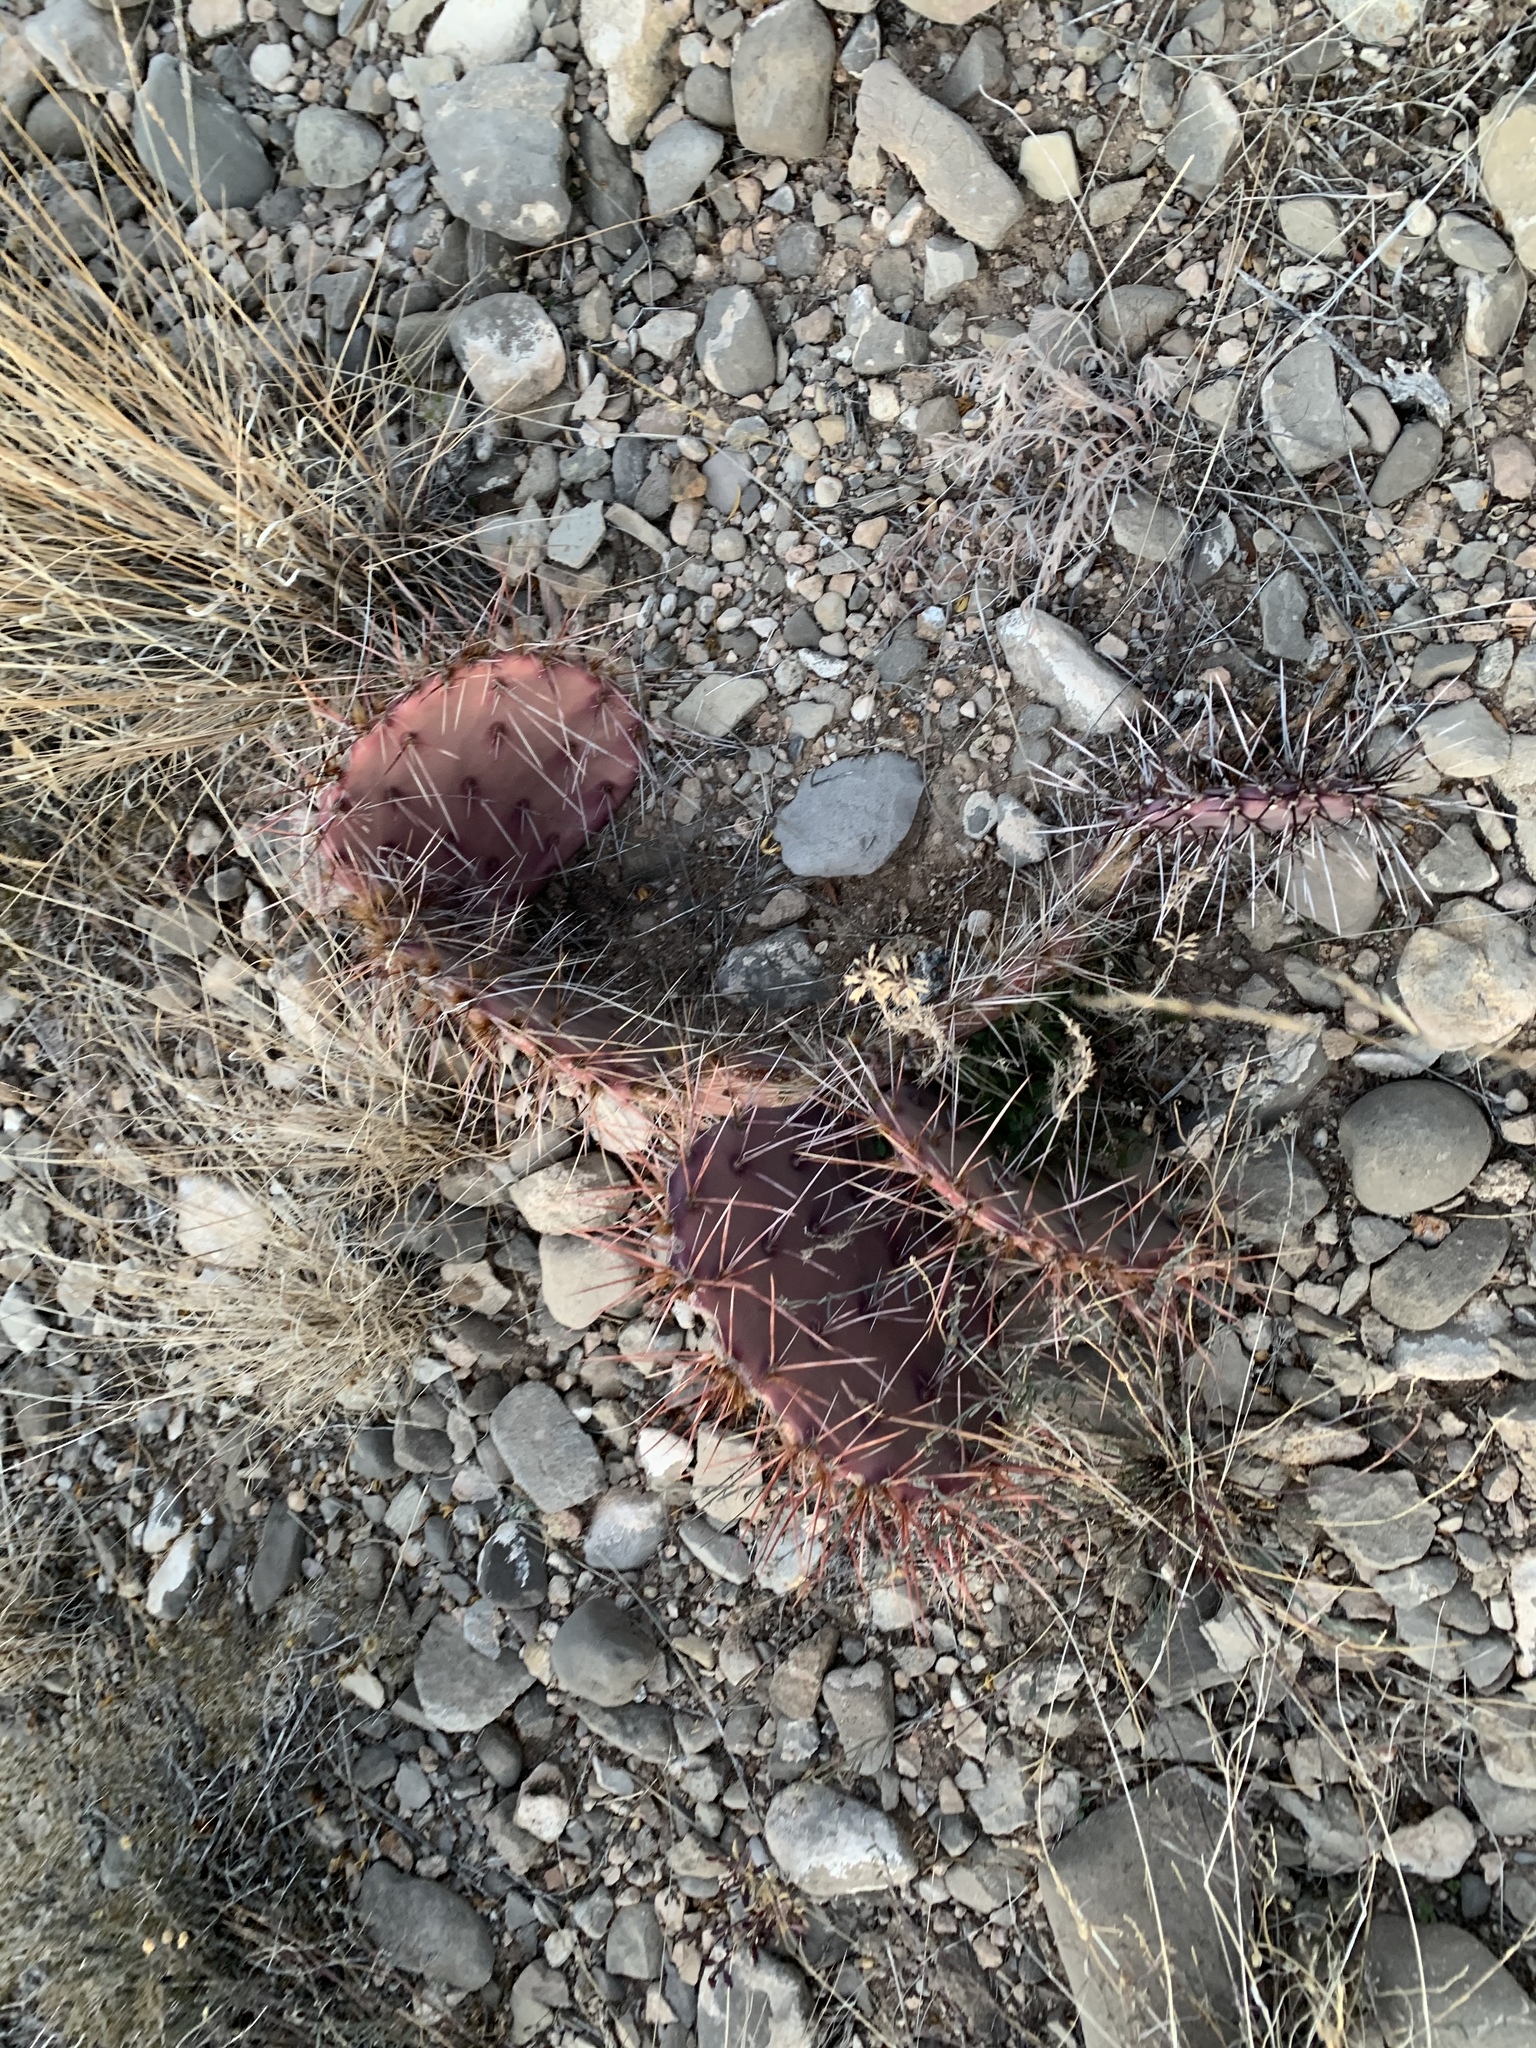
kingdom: Plantae
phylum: Tracheophyta
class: Magnoliopsida
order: Caryophyllales
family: Cactaceae
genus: Opuntia
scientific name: Opuntia macrocentra
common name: Purple prickly-pear
